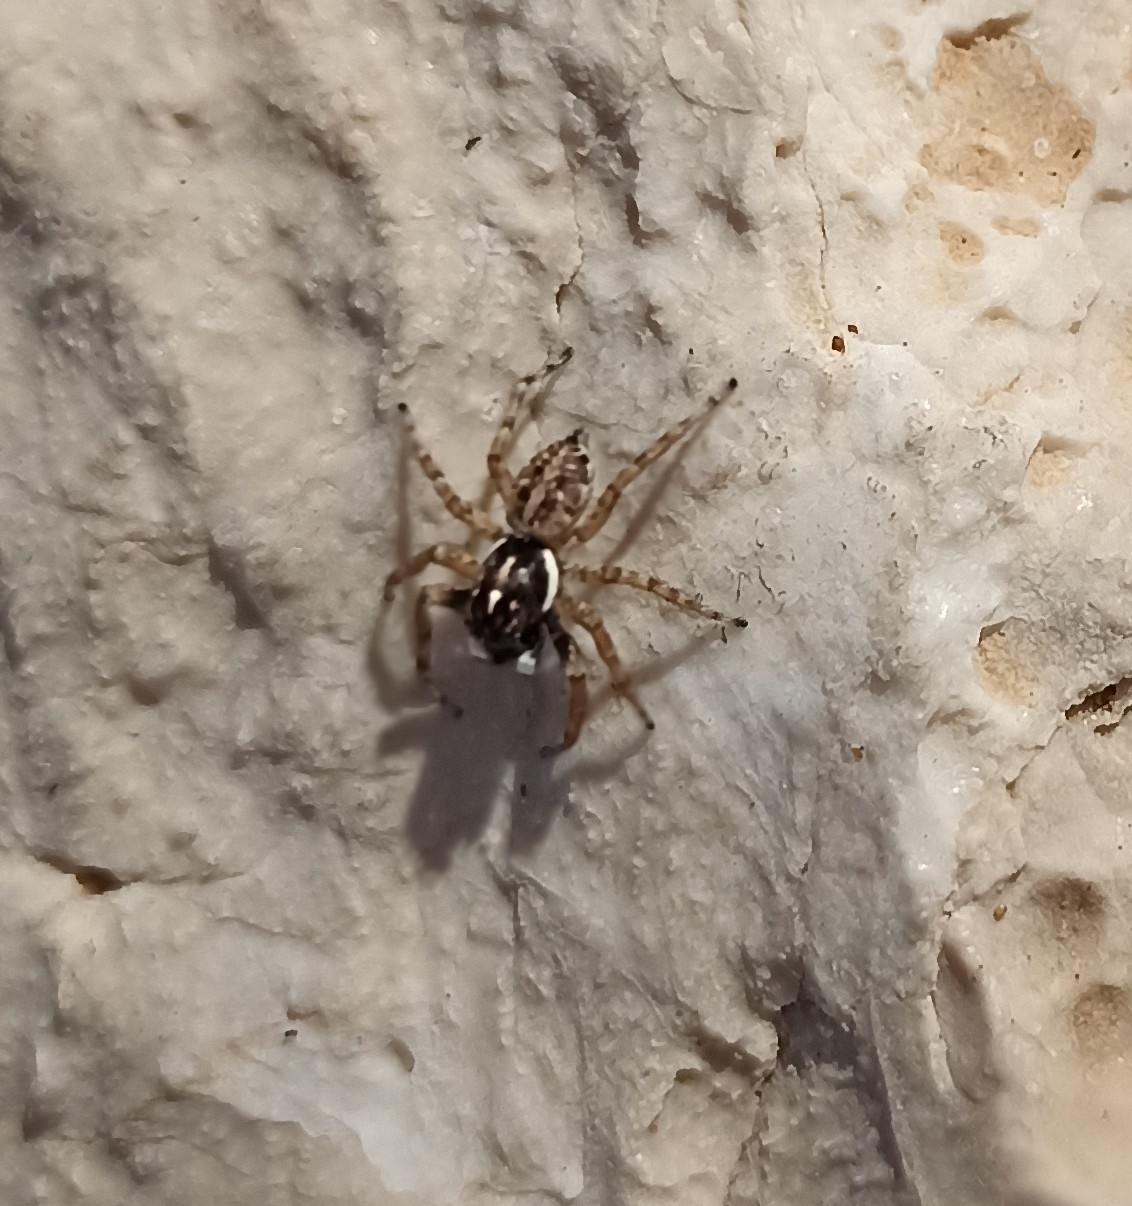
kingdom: Animalia
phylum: Arthropoda
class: Arachnida
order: Araneae
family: Salticidae
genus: Menemerus
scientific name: Menemerus semilimbatus
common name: Jumping spider
